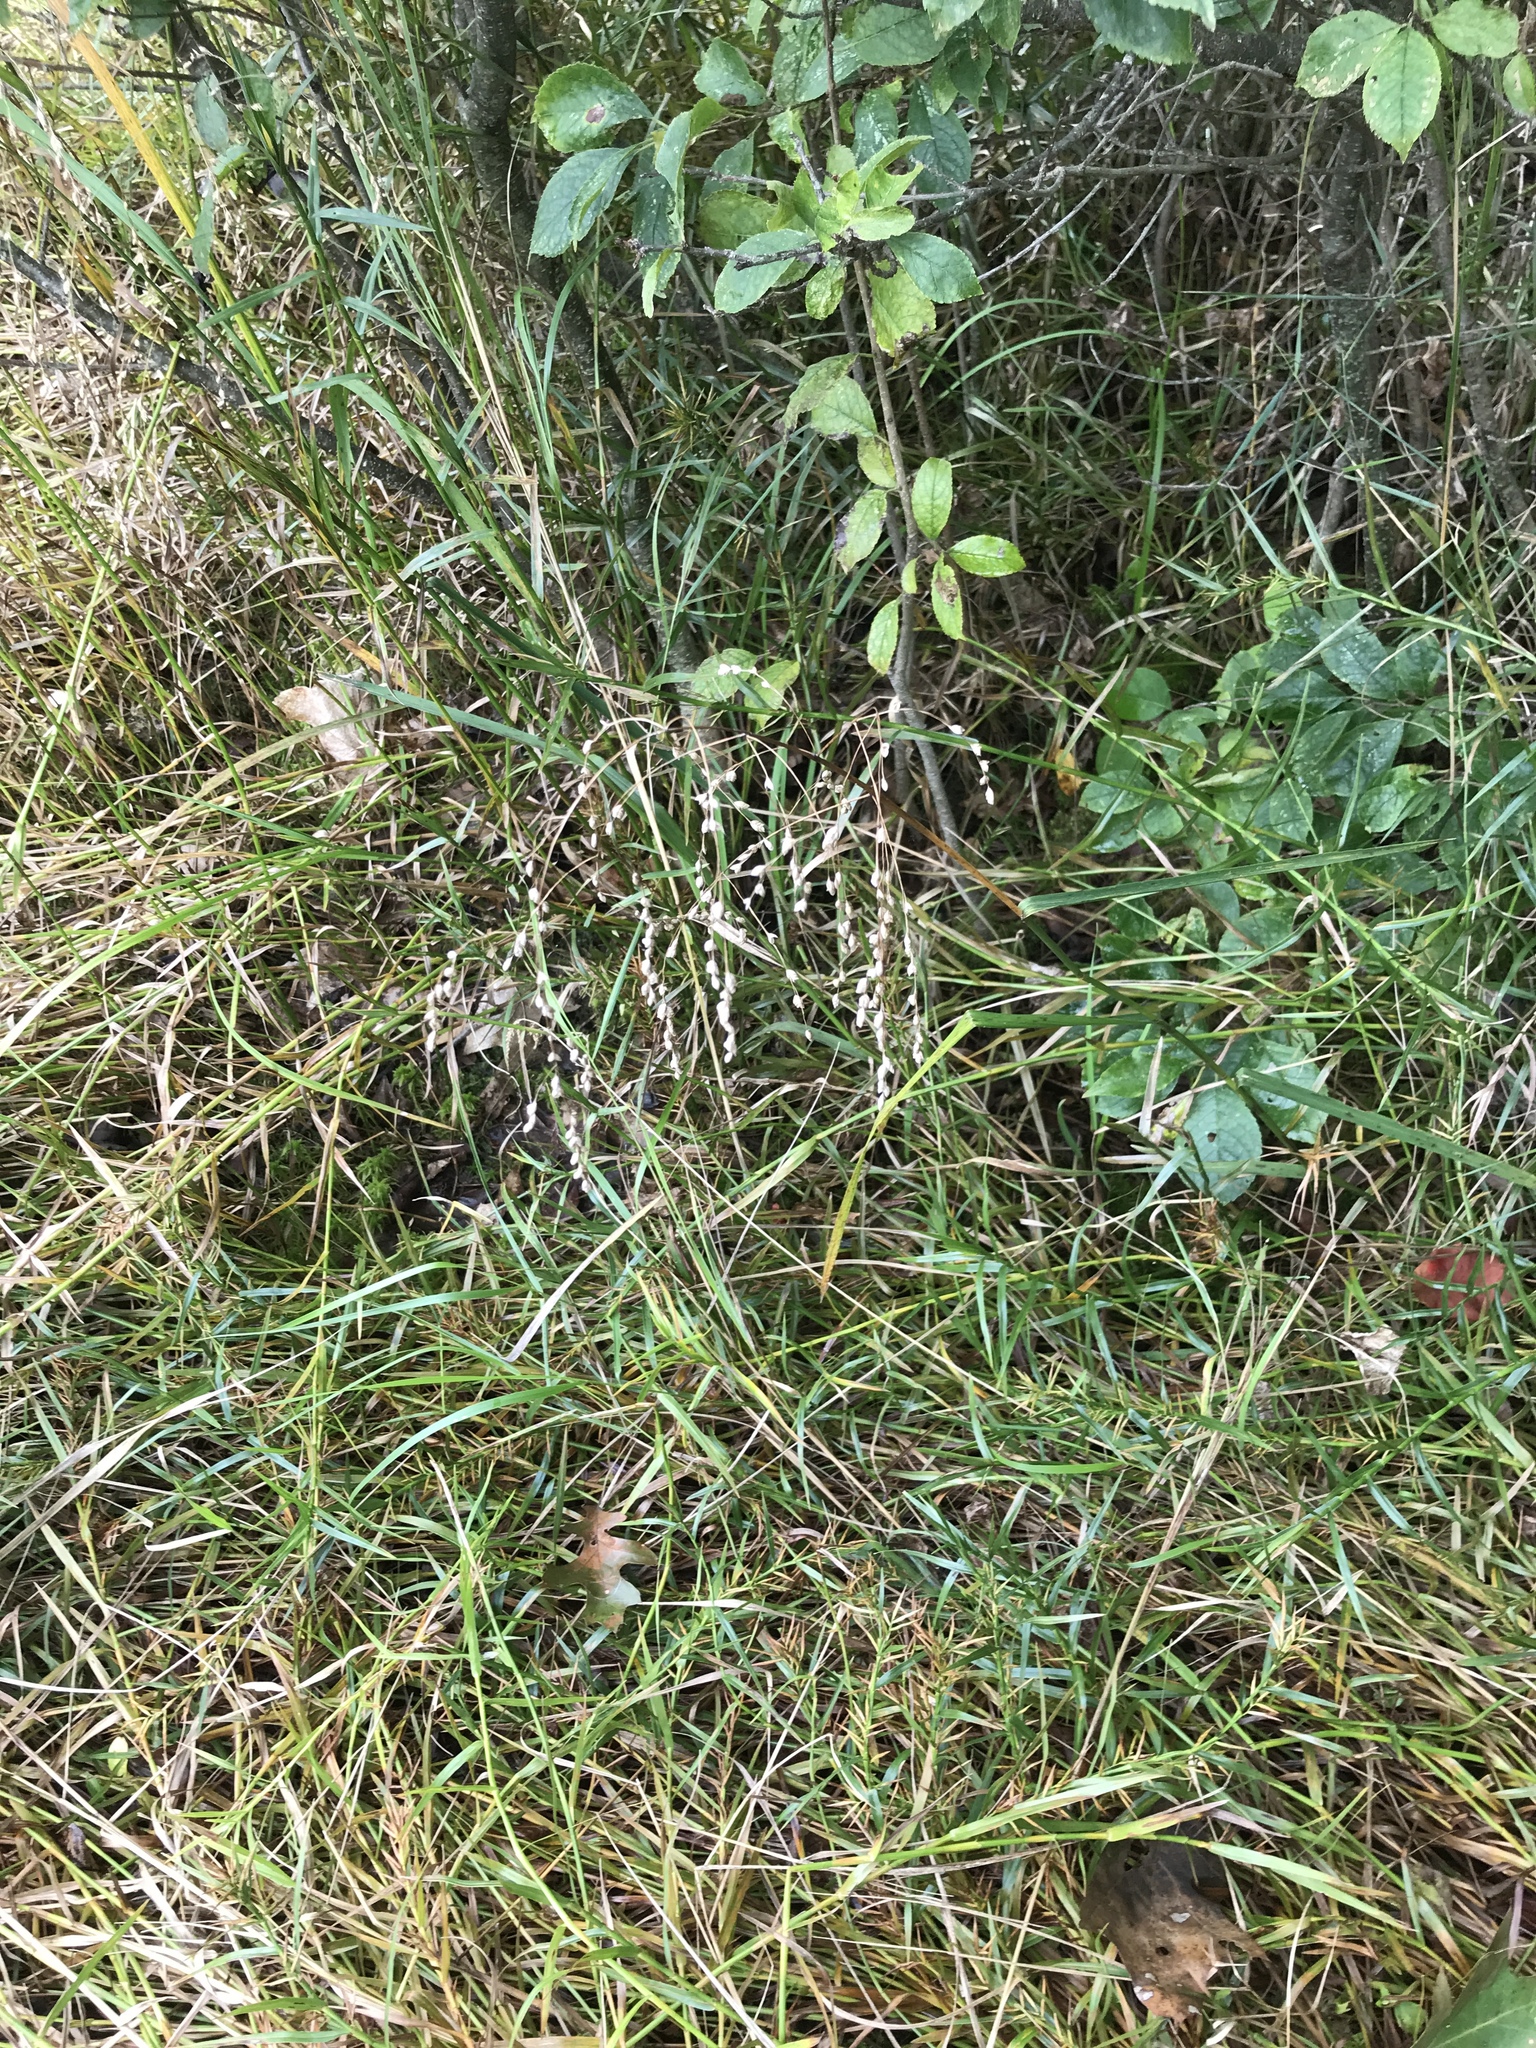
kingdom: Plantae
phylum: Tracheophyta
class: Liliopsida
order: Poales
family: Poaceae
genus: Glyceria
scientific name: Glyceria canadensis
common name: Canada mannagrass
